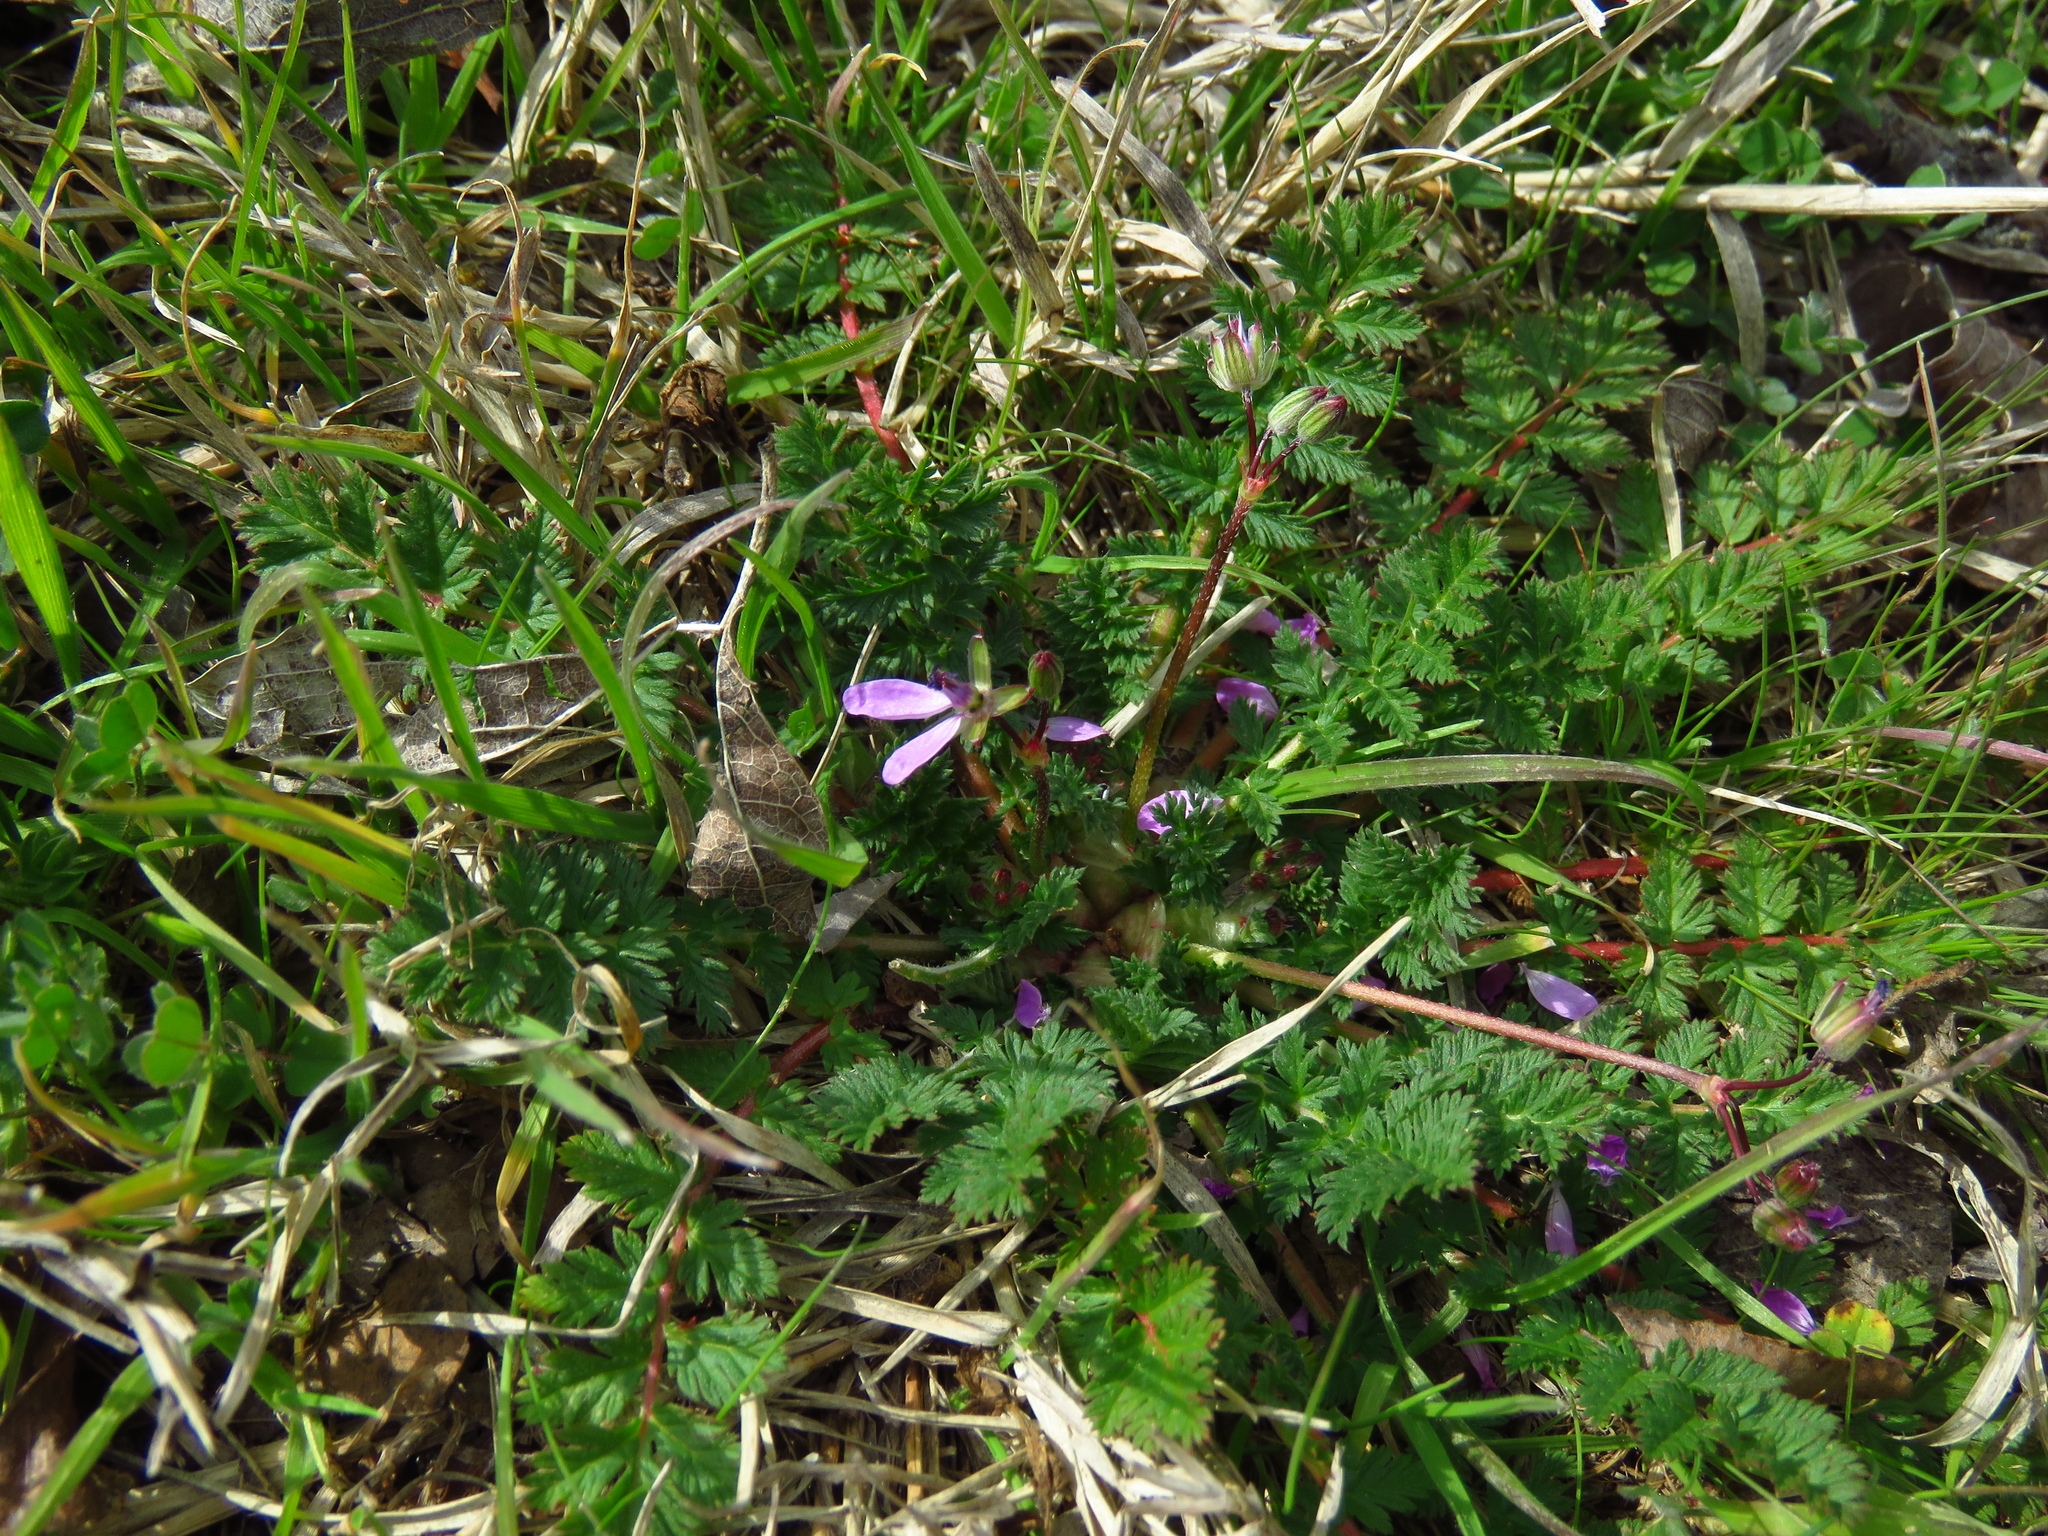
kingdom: Plantae
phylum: Tracheophyta
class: Magnoliopsida
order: Geraniales
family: Geraniaceae
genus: Erodium
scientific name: Erodium cicutarium
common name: Common stork's-bill
